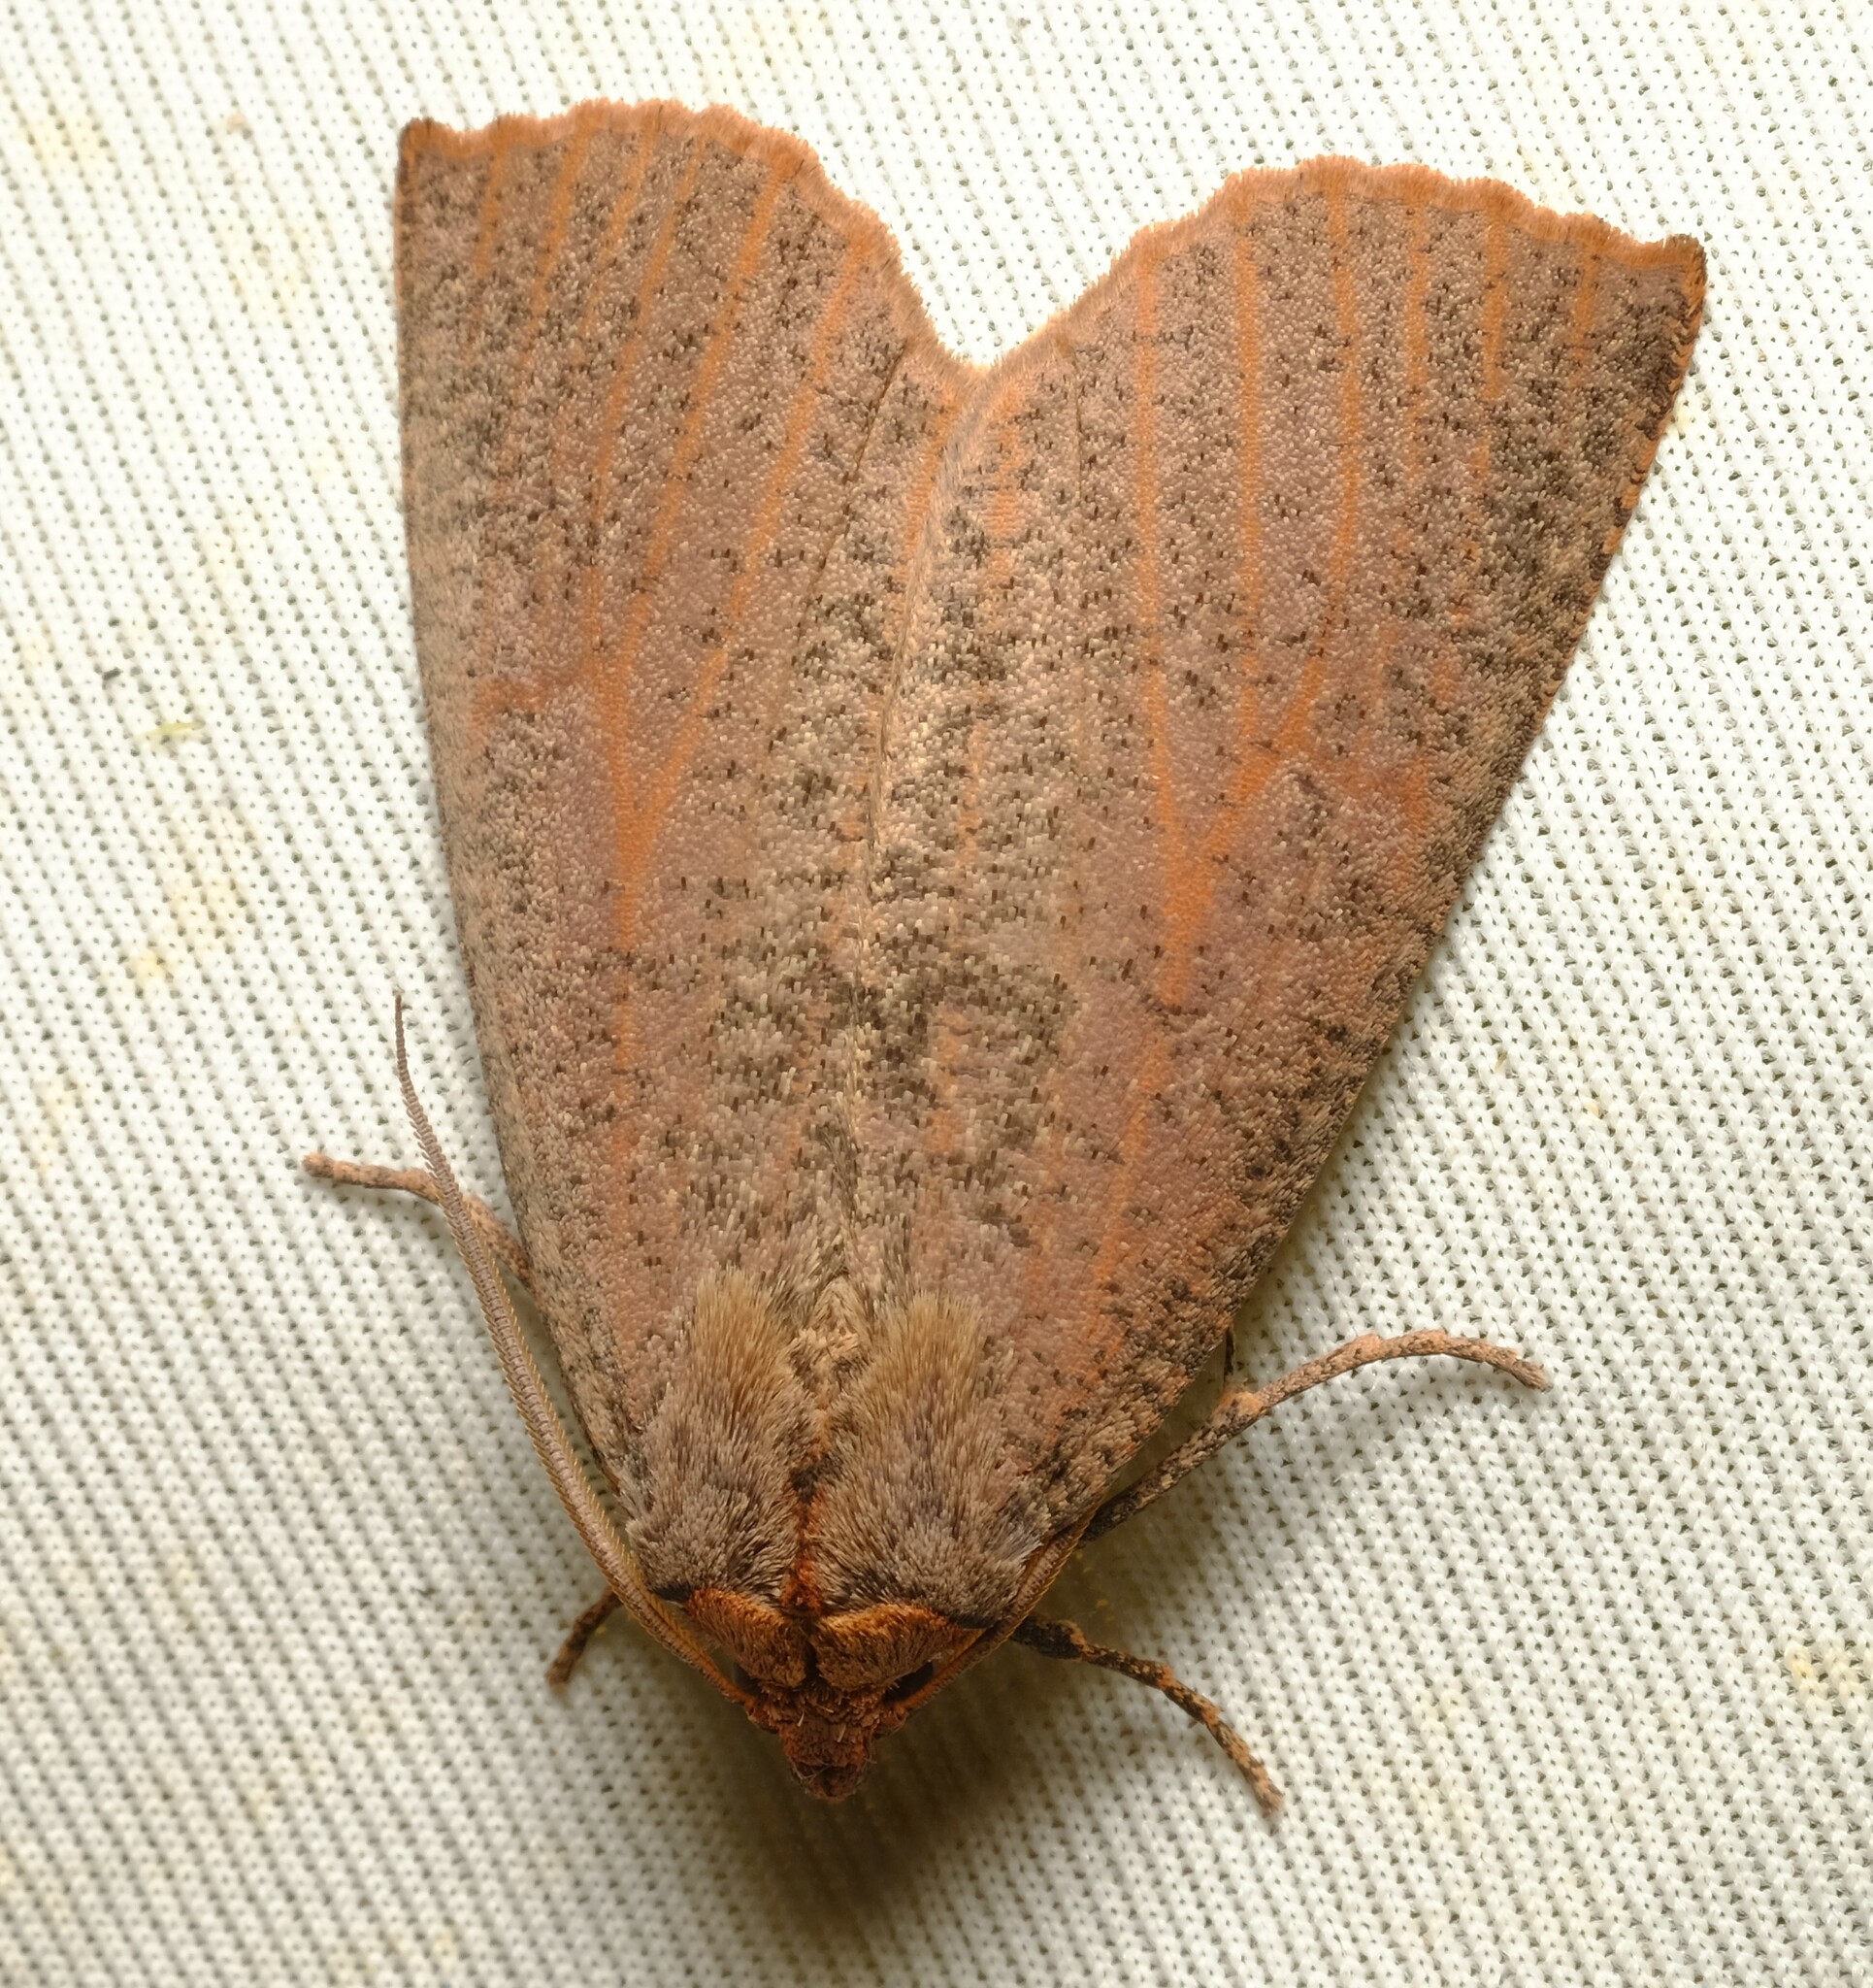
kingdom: Animalia
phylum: Arthropoda
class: Insecta
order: Lepidoptera
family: Geometridae
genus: Fisera
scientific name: Fisera eribola
